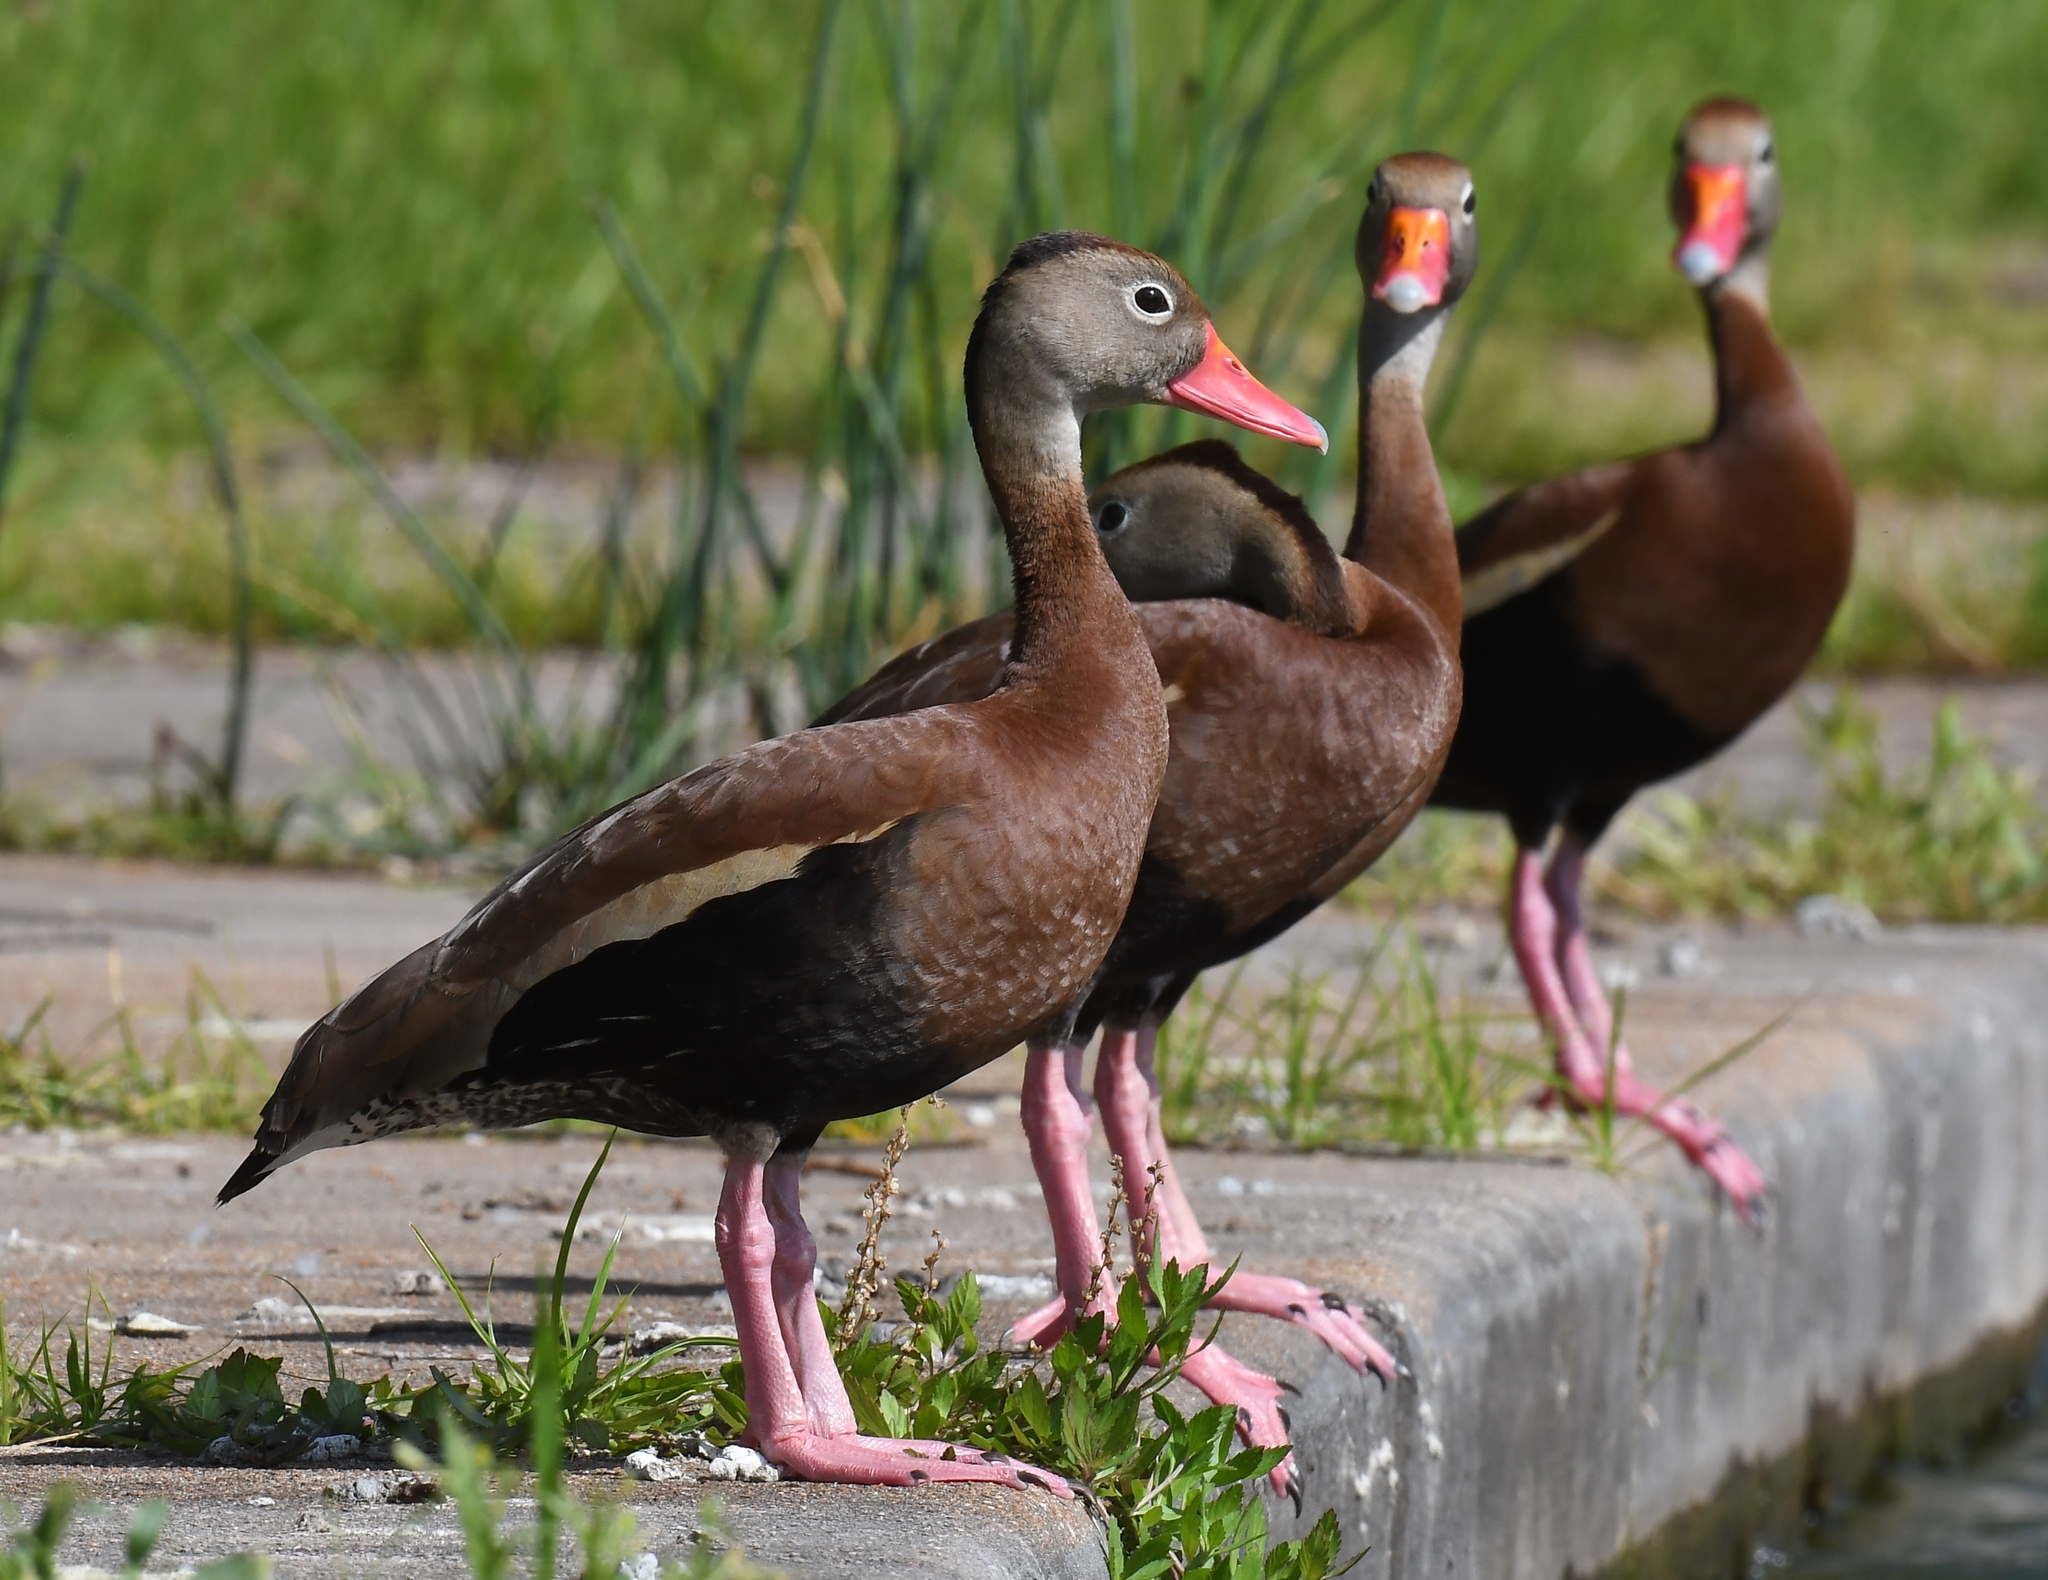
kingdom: Animalia
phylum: Chordata
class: Aves
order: Anseriformes
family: Anatidae
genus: Dendrocygna
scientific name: Dendrocygna autumnalis
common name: Black-bellied whistling duck
